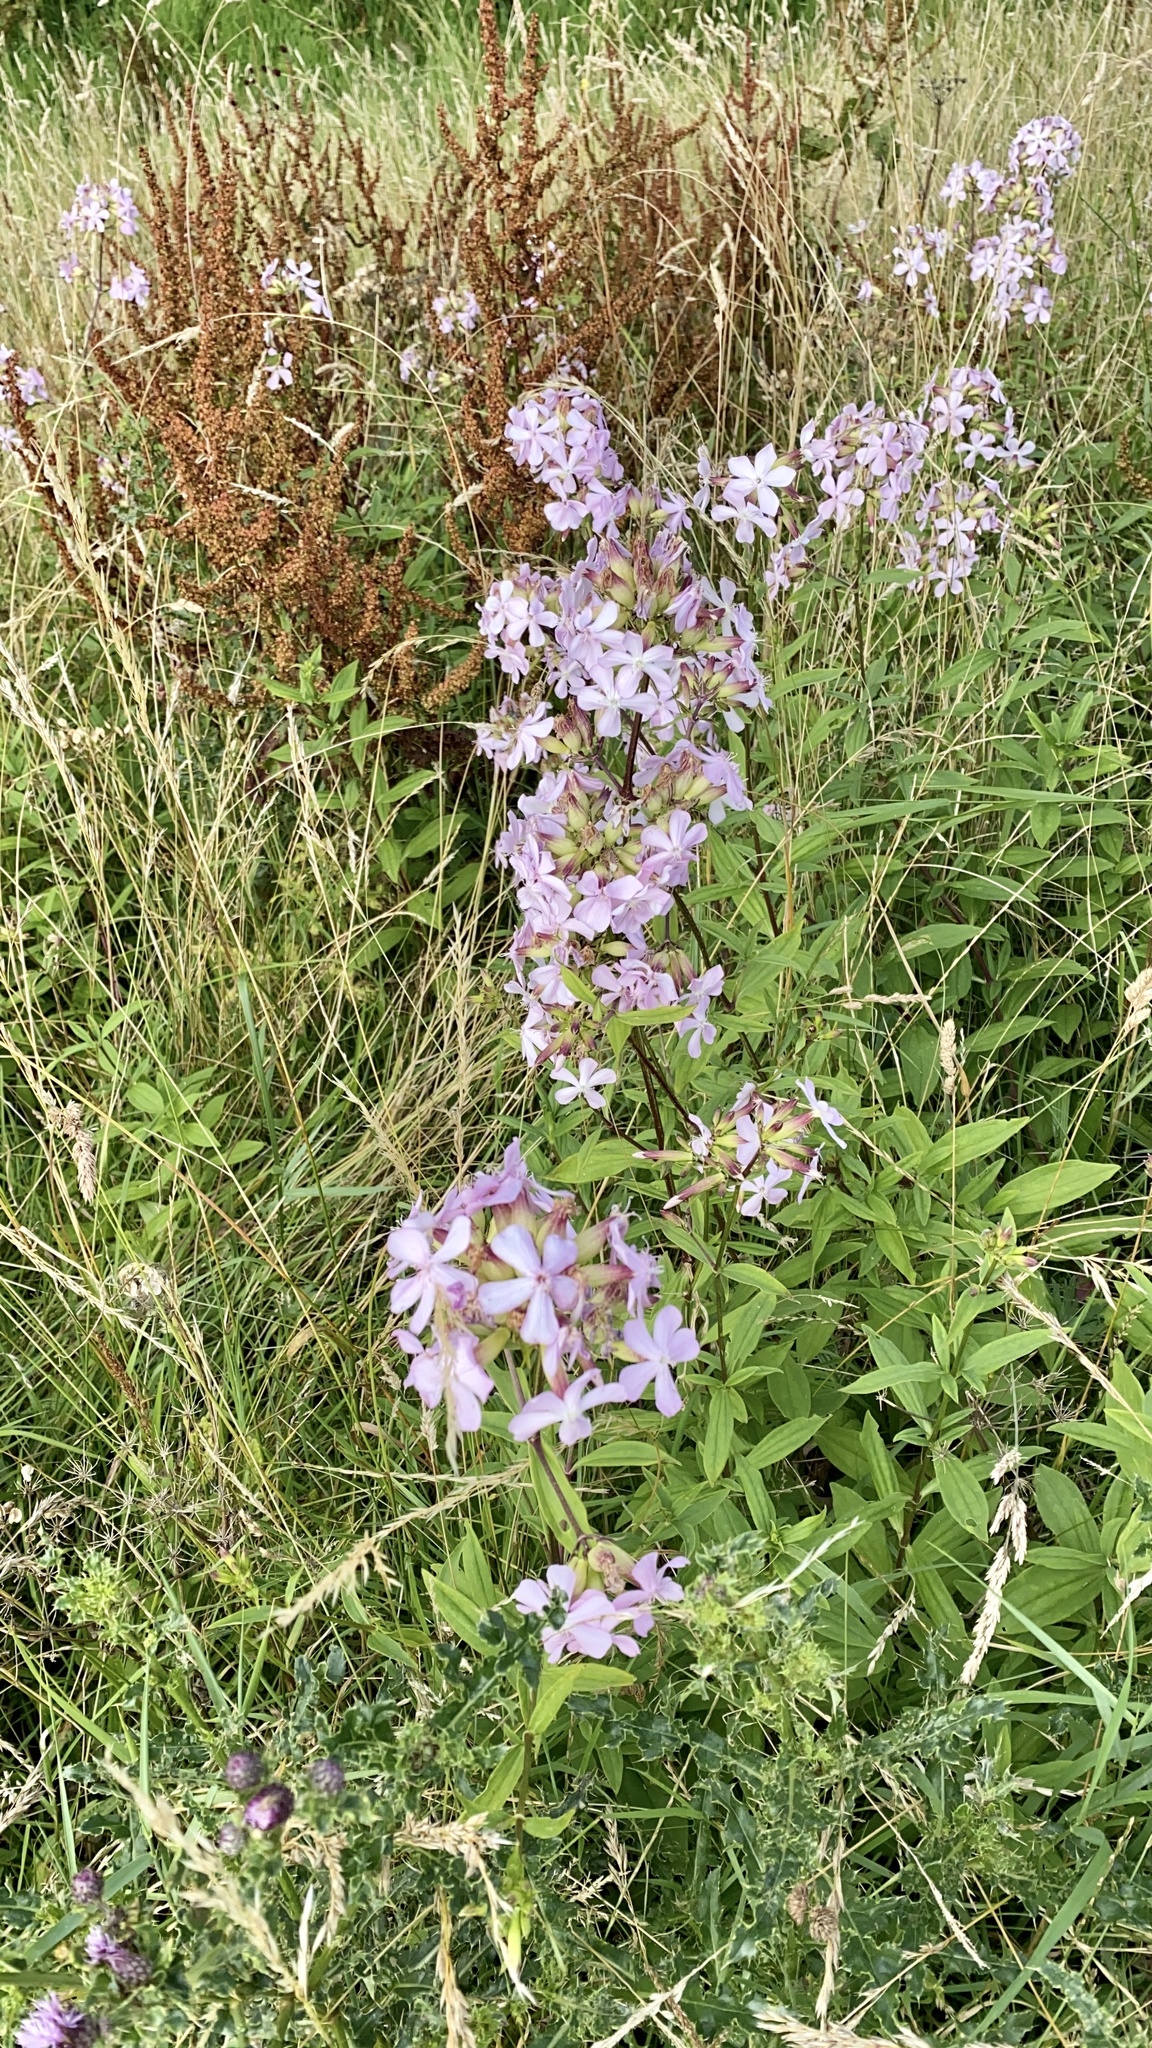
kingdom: Plantae
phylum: Tracheophyta
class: Magnoliopsida
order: Caryophyllales
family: Caryophyllaceae
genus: Saponaria
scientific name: Saponaria officinalis
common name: Soapwort
